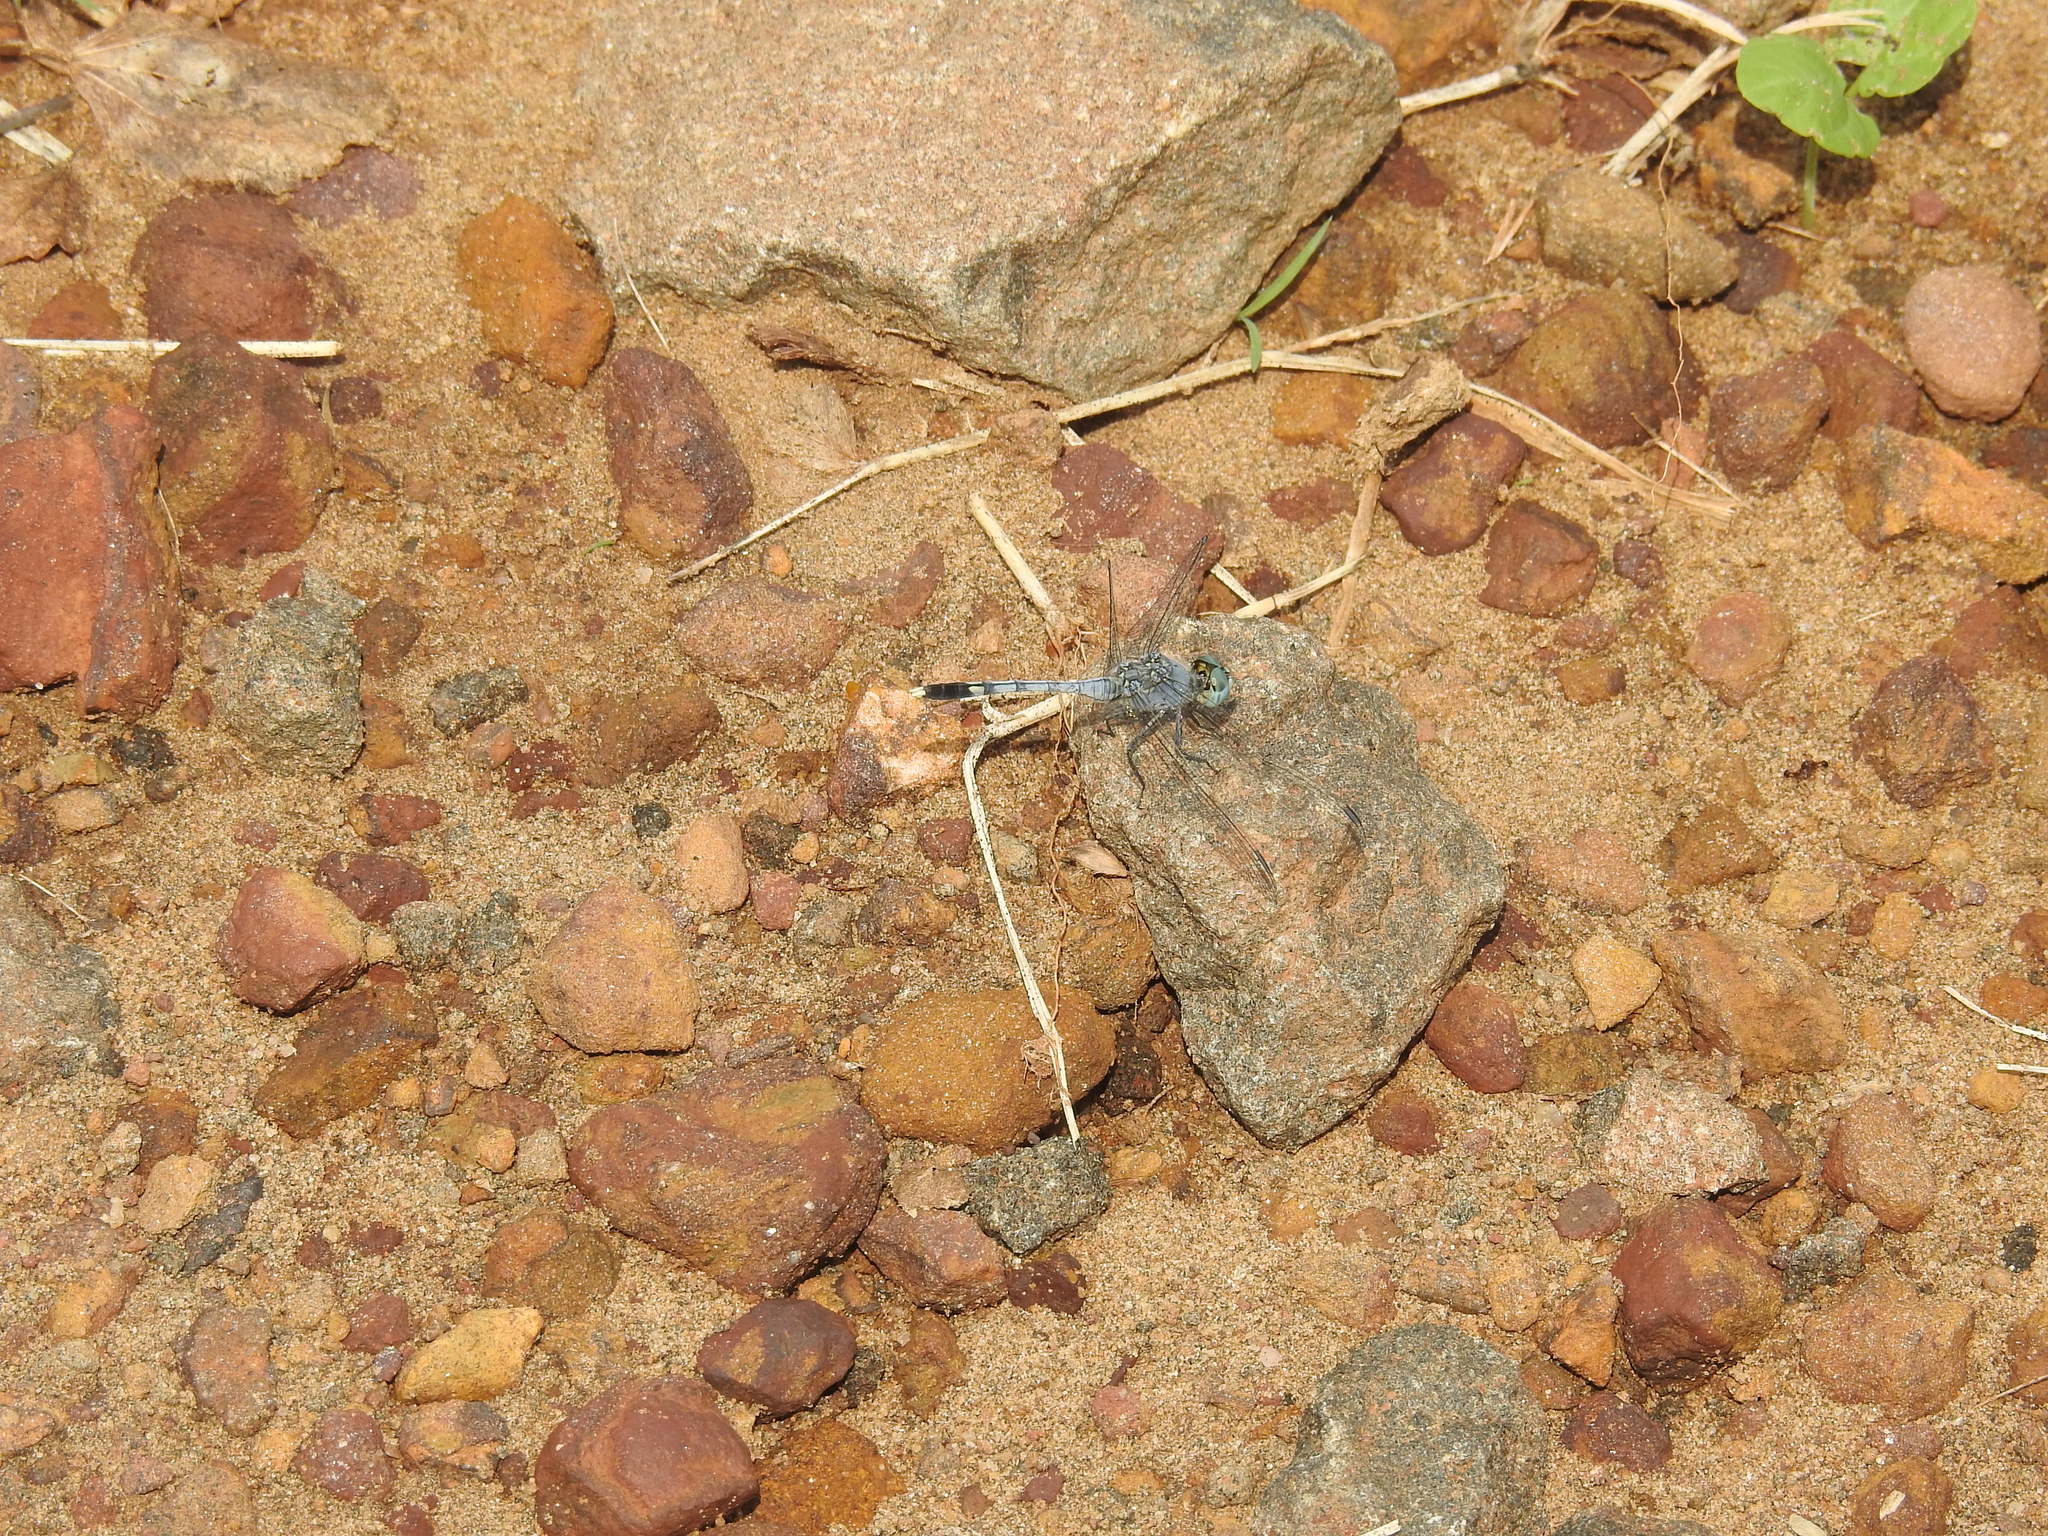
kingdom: Animalia
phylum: Arthropoda
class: Insecta
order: Odonata
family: Libellulidae
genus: Diplacodes
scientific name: Diplacodes trivialis
